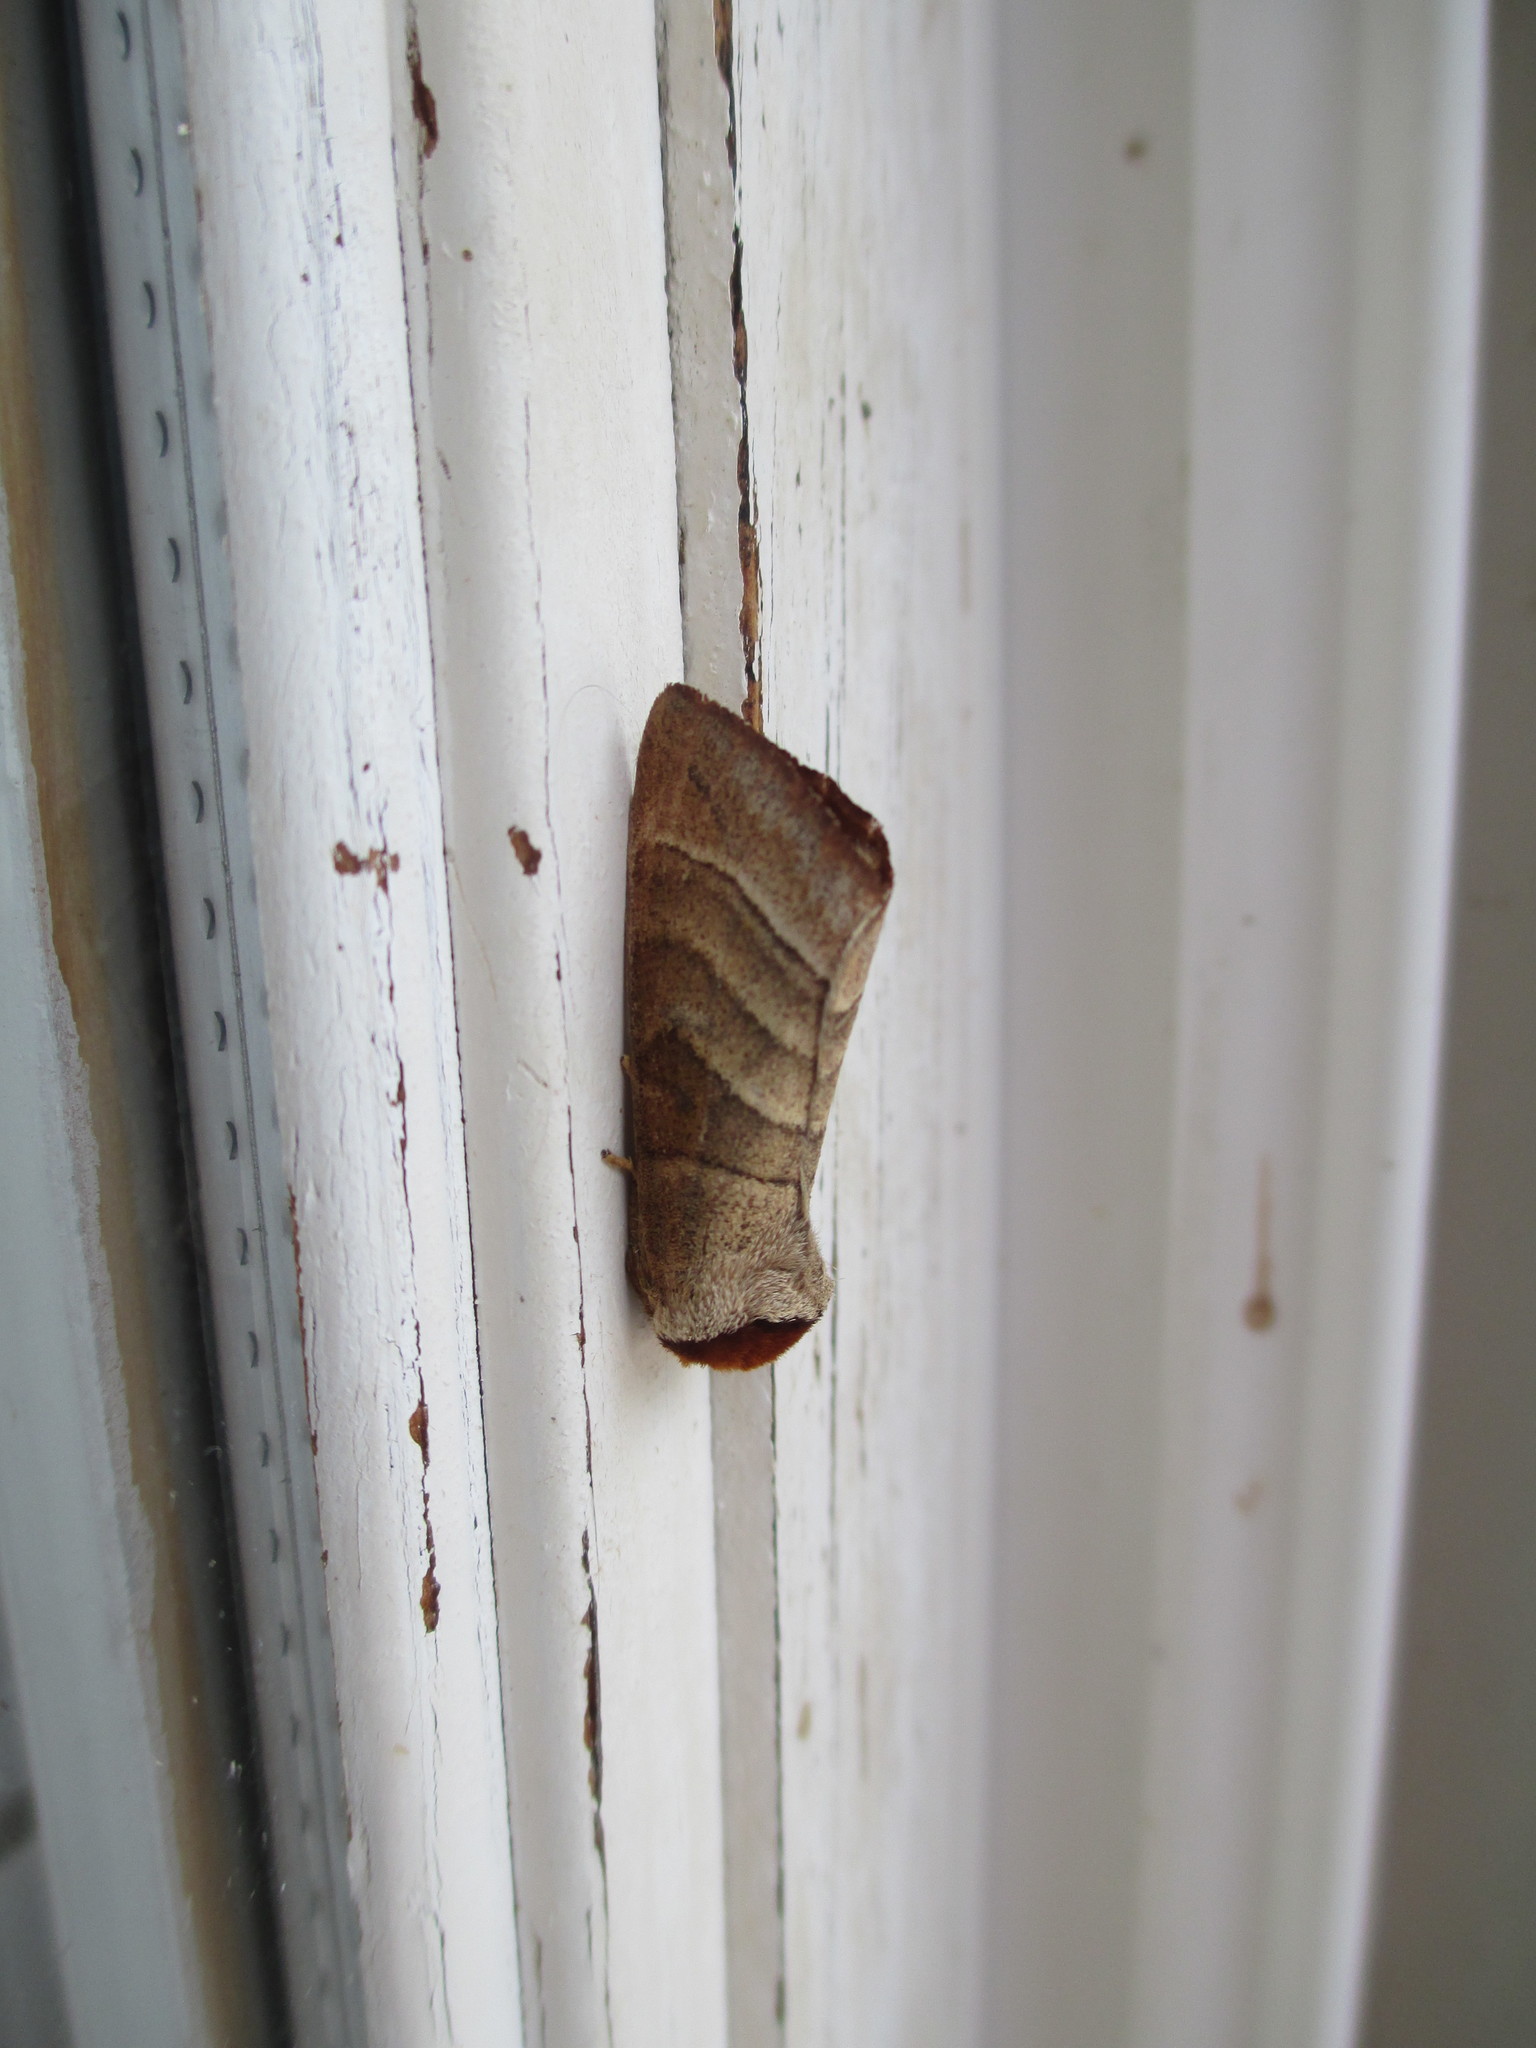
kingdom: Animalia
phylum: Arthropoda
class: Insecta
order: Lepidoptera
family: Notodontidae
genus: Datana
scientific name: Datana integerrima
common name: Walnut caterpillar
